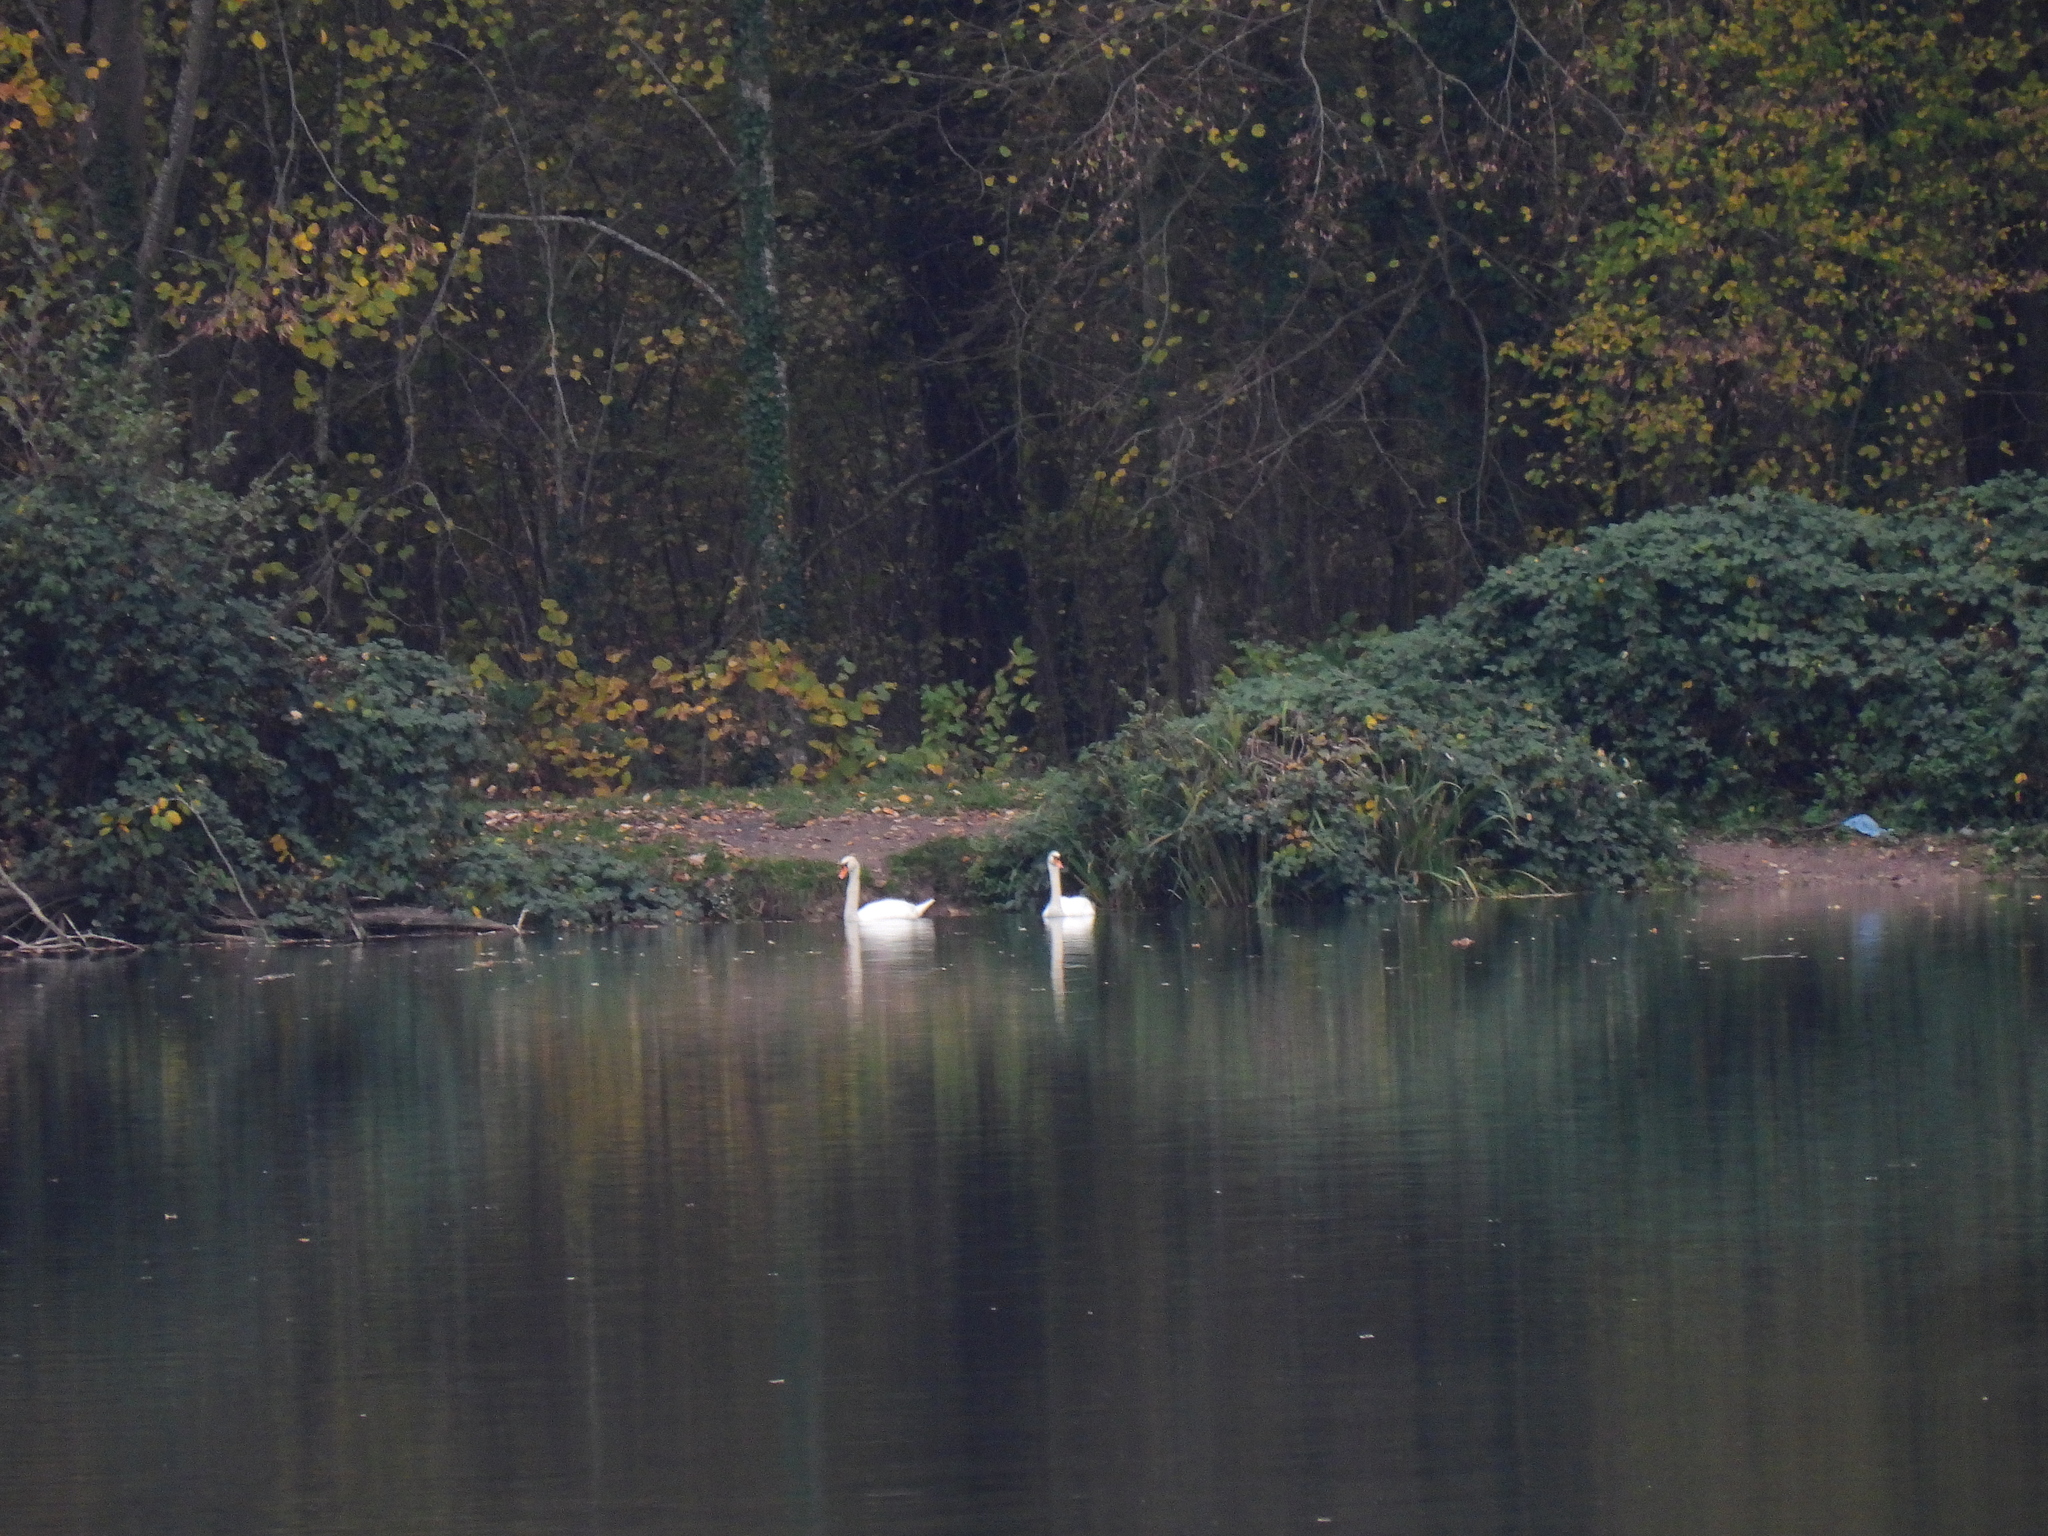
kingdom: Animalia
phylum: Chordata
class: Aves
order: Anseriformes
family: Anatidae
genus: Cygnus
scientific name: Cygnus olor
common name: Mute swan
